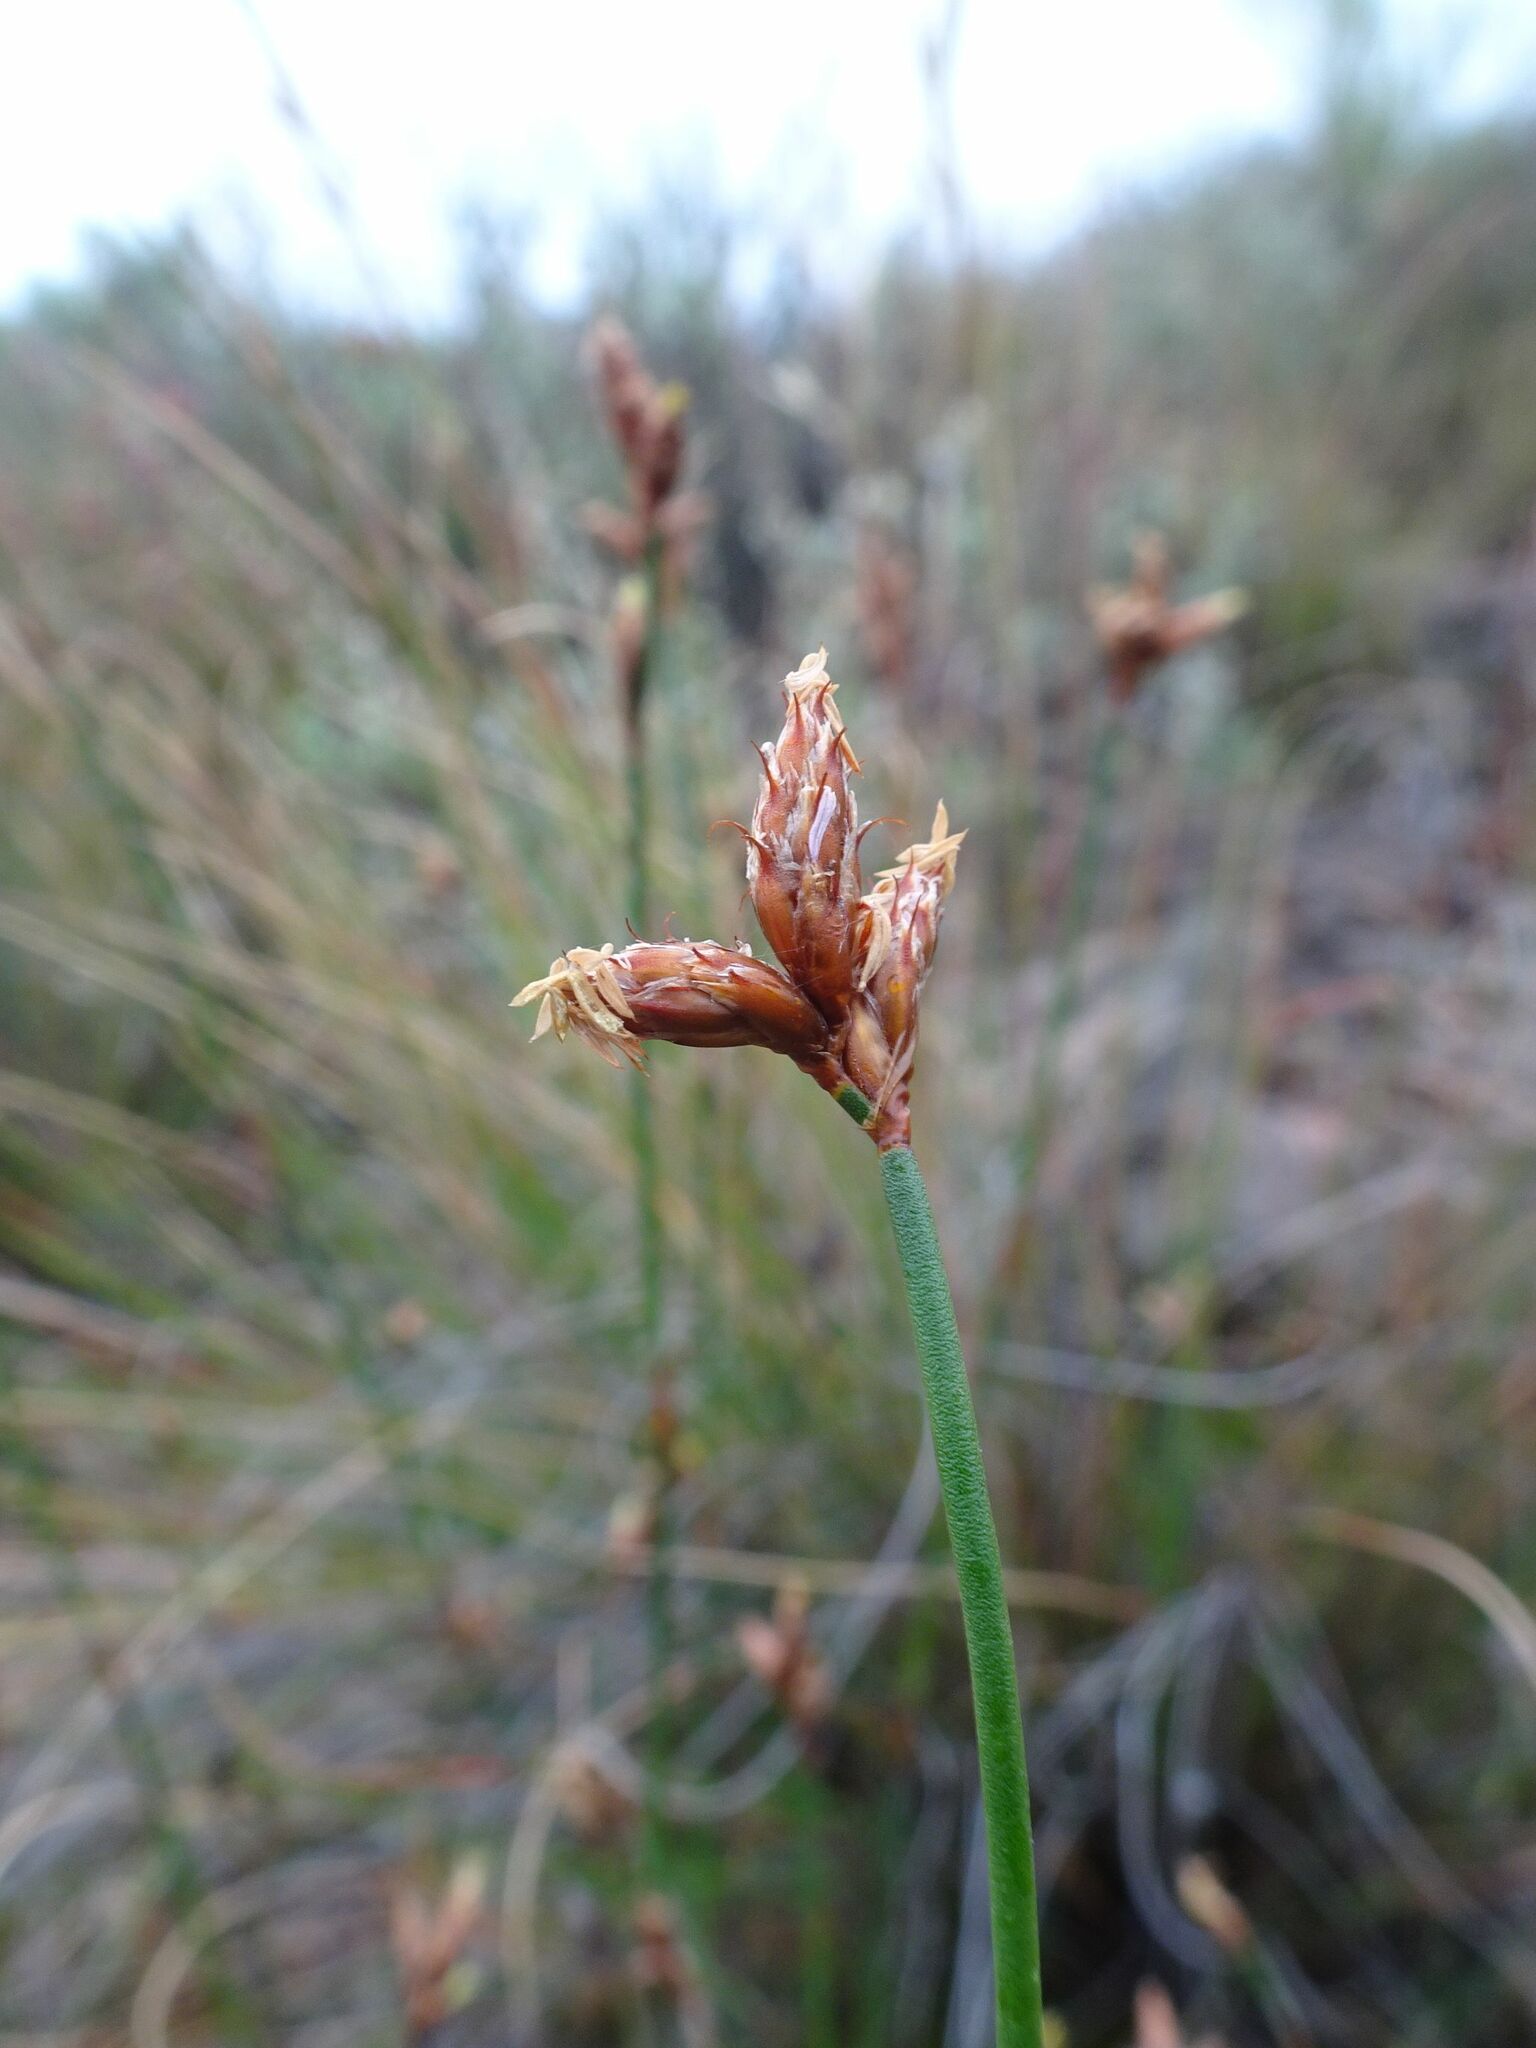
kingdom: Plantae
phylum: Tracheophyta
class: Liliopsida
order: Poales
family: Restionaceae
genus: Restio
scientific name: Restio capensis
